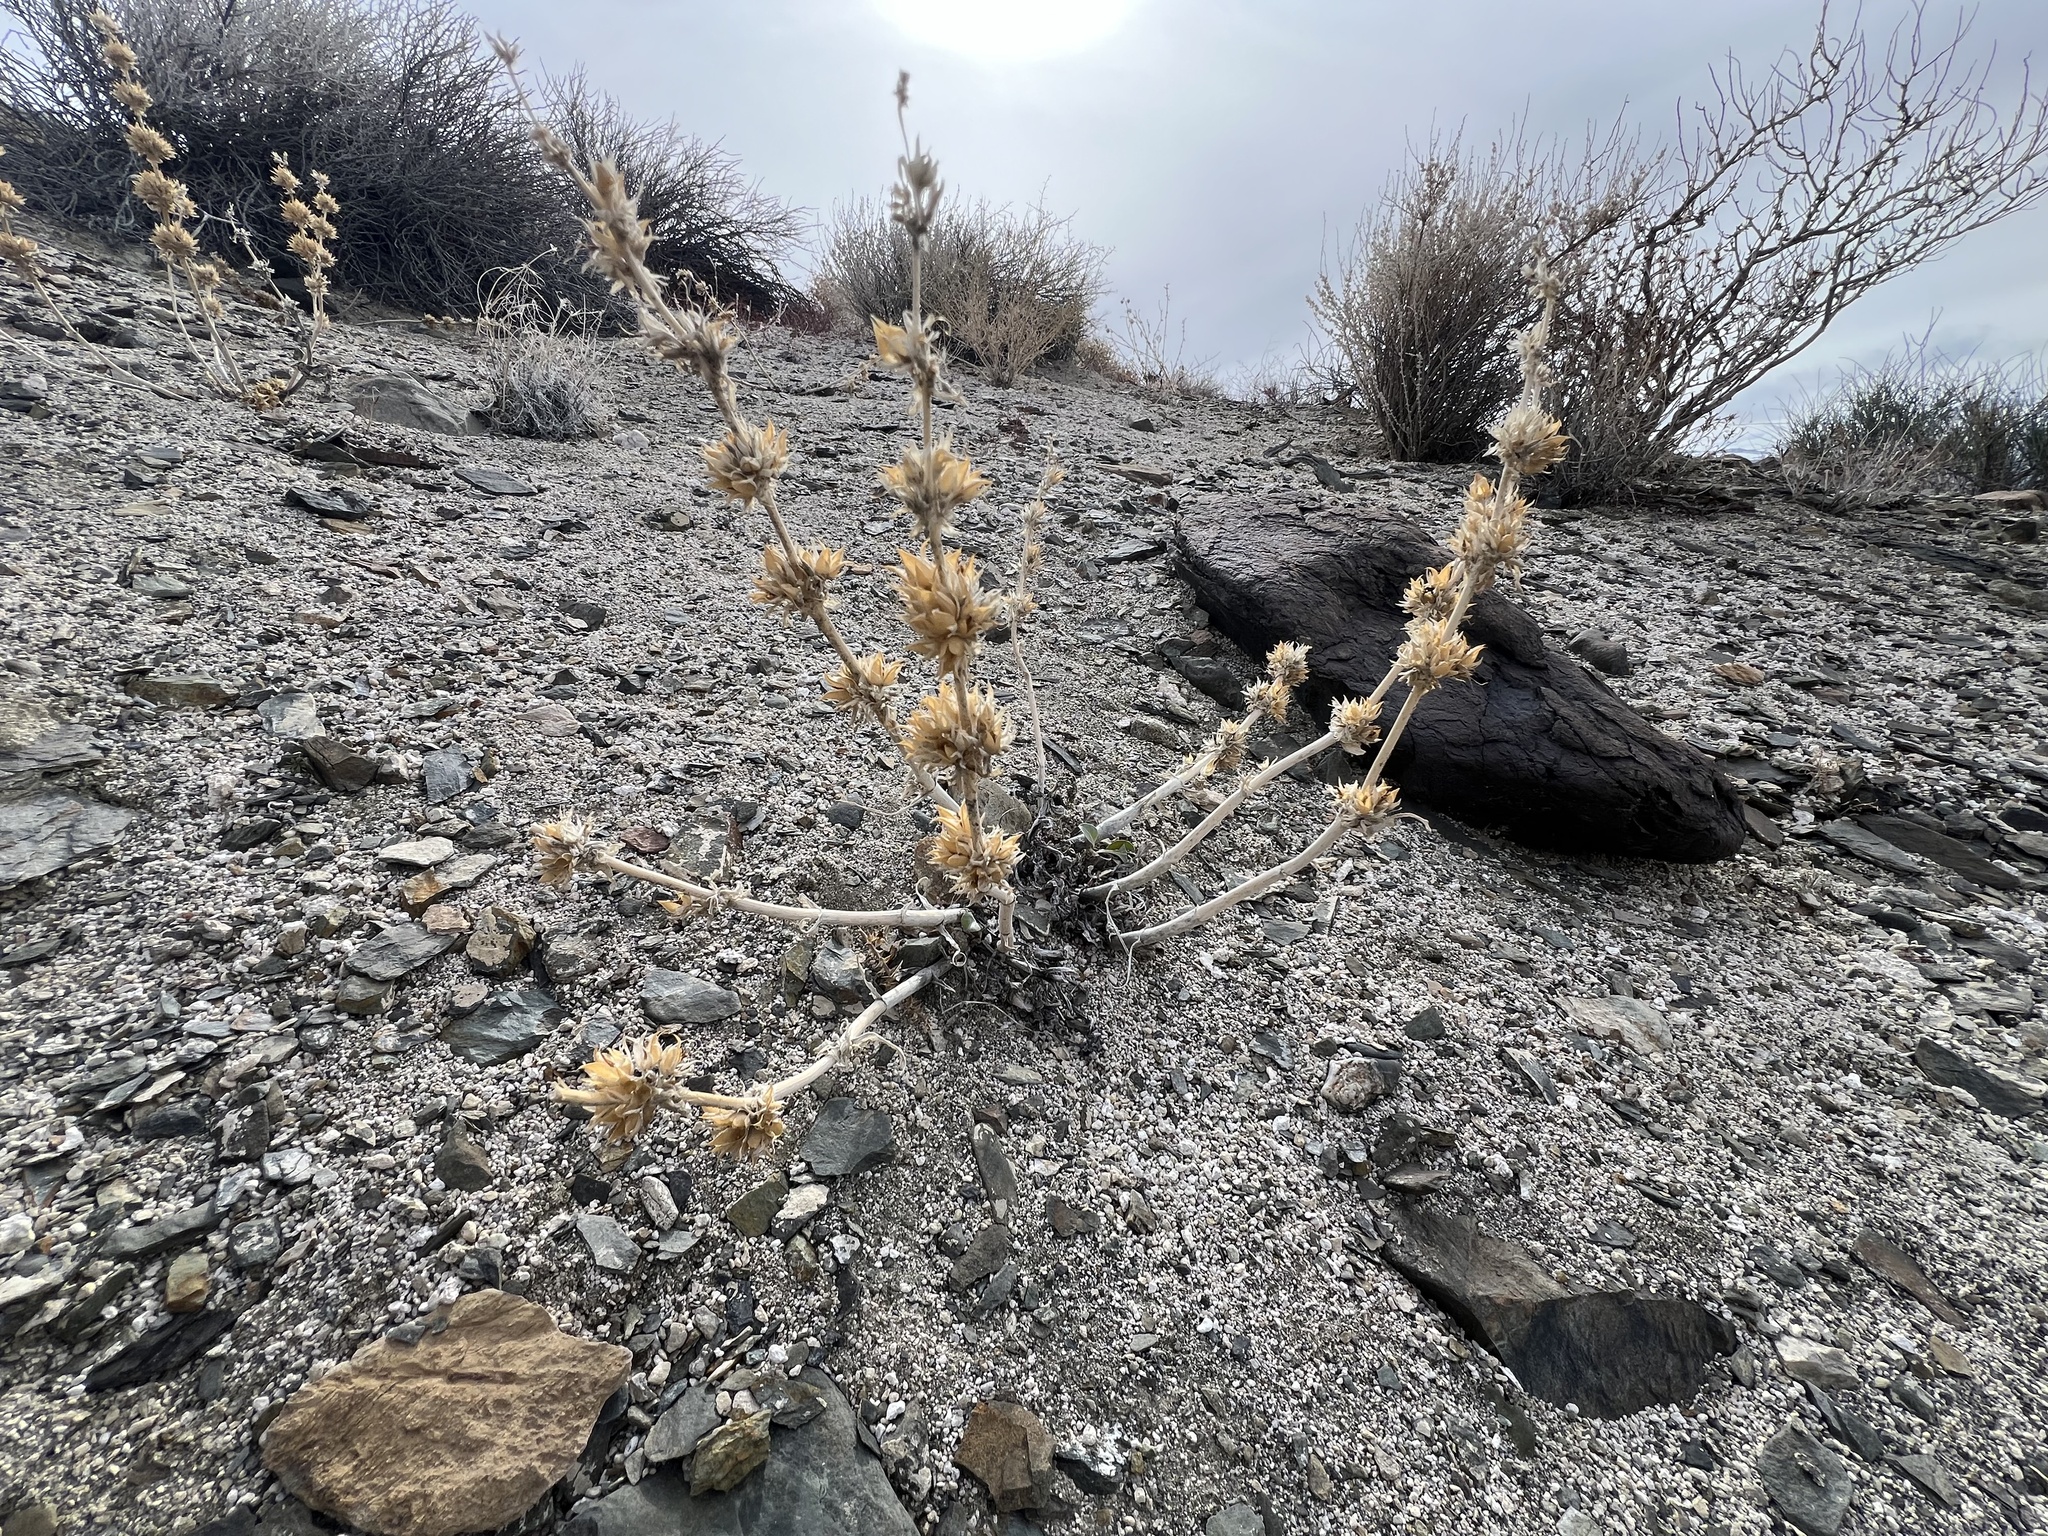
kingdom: Plantae
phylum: Tracheophyta
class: Magnoliopsida
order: Lamiales
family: Plantaginaceae
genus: Penstemon
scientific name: Penstemon monoensis
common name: Mono penstemon
